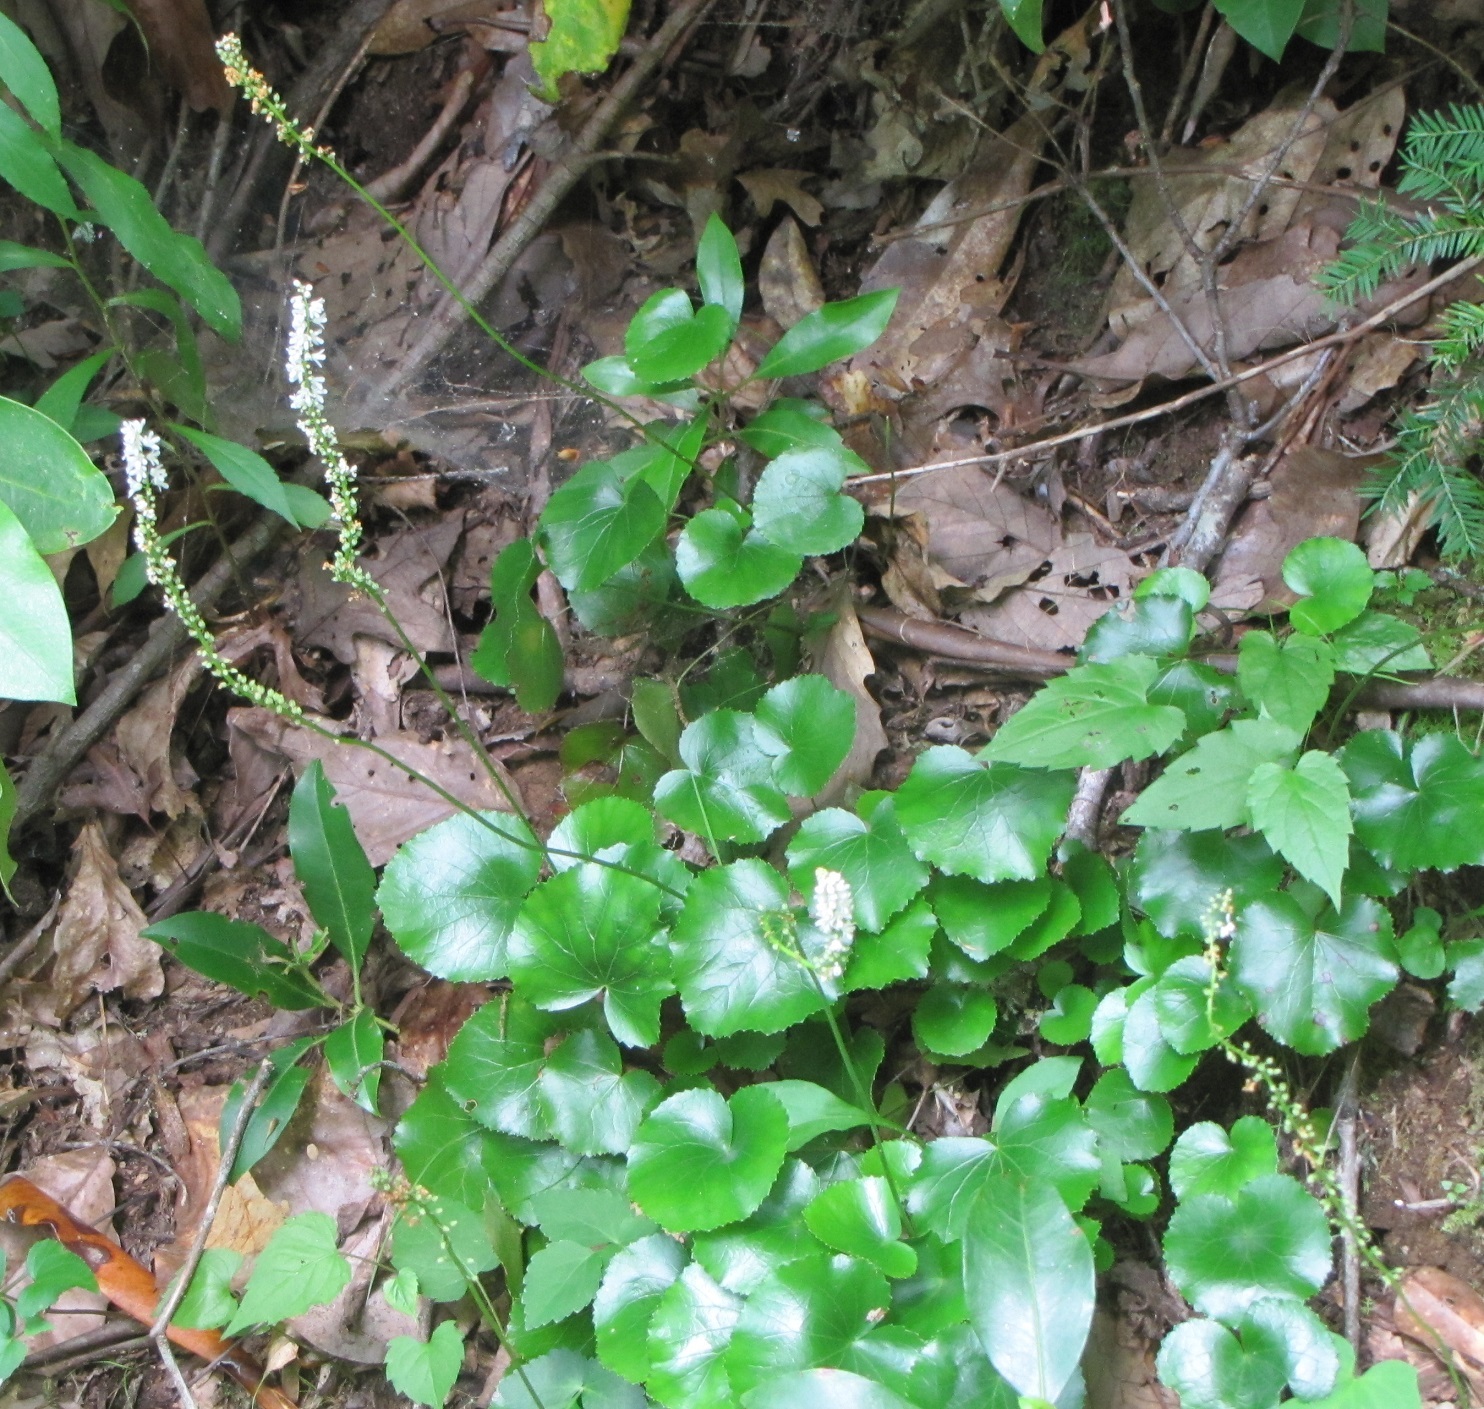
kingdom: Plantae
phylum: Tracheophyta
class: Magnoliopsida
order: Ericales
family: Diapensiaceae
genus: Galax
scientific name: Galax urceolata
